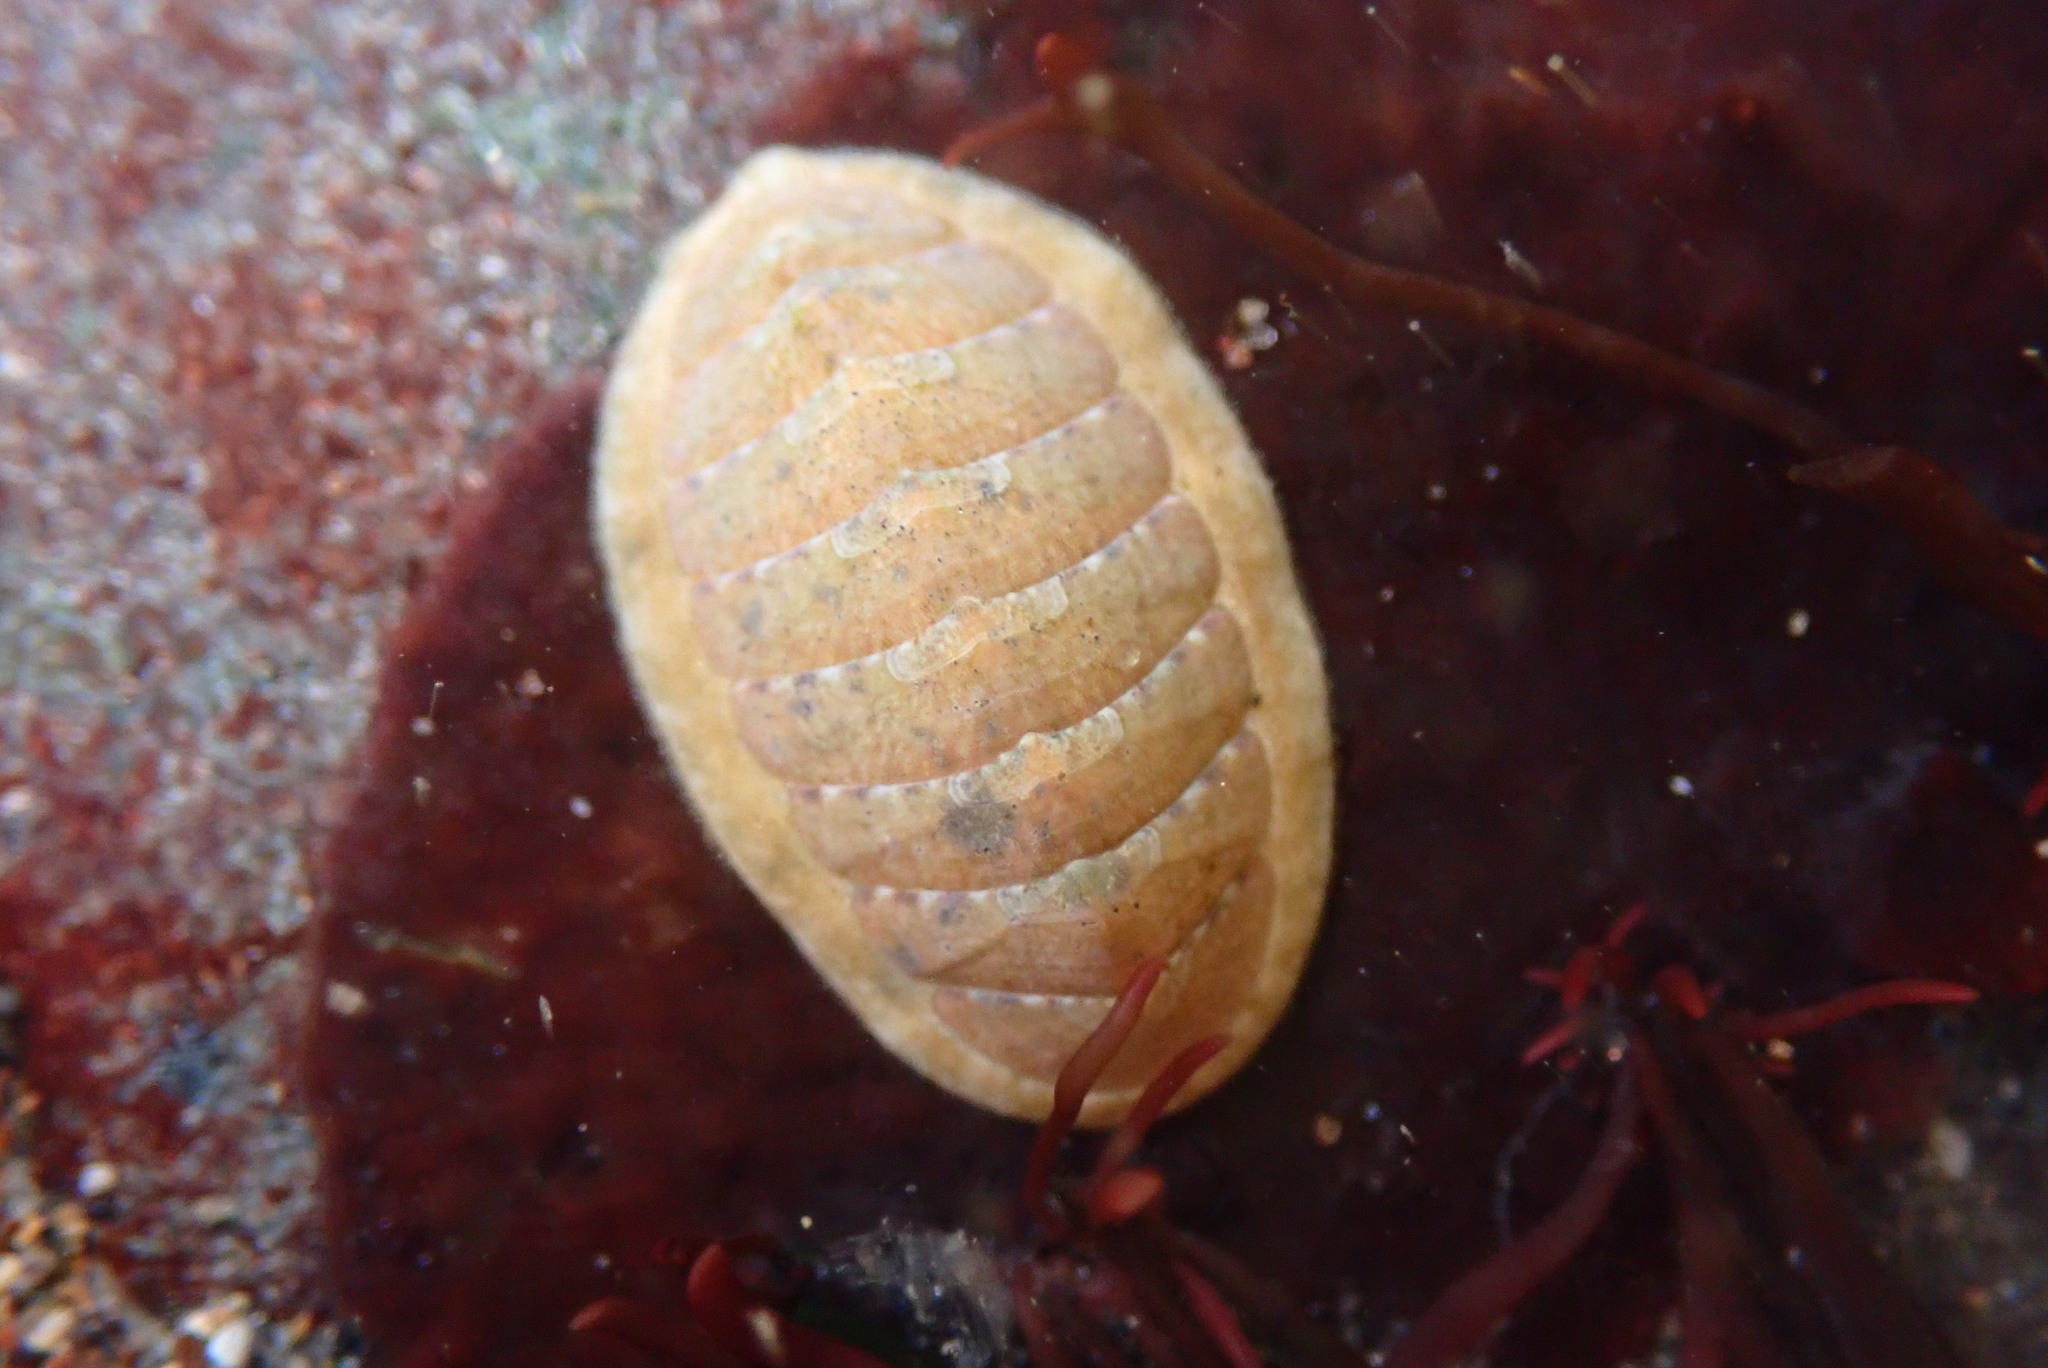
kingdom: Animalia
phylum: Mollusca
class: Polyplacophora
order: Chitonida
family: Tonicellidae
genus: Cyanoplax
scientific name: Cyanoplax keepiana
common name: Keep's chiton
